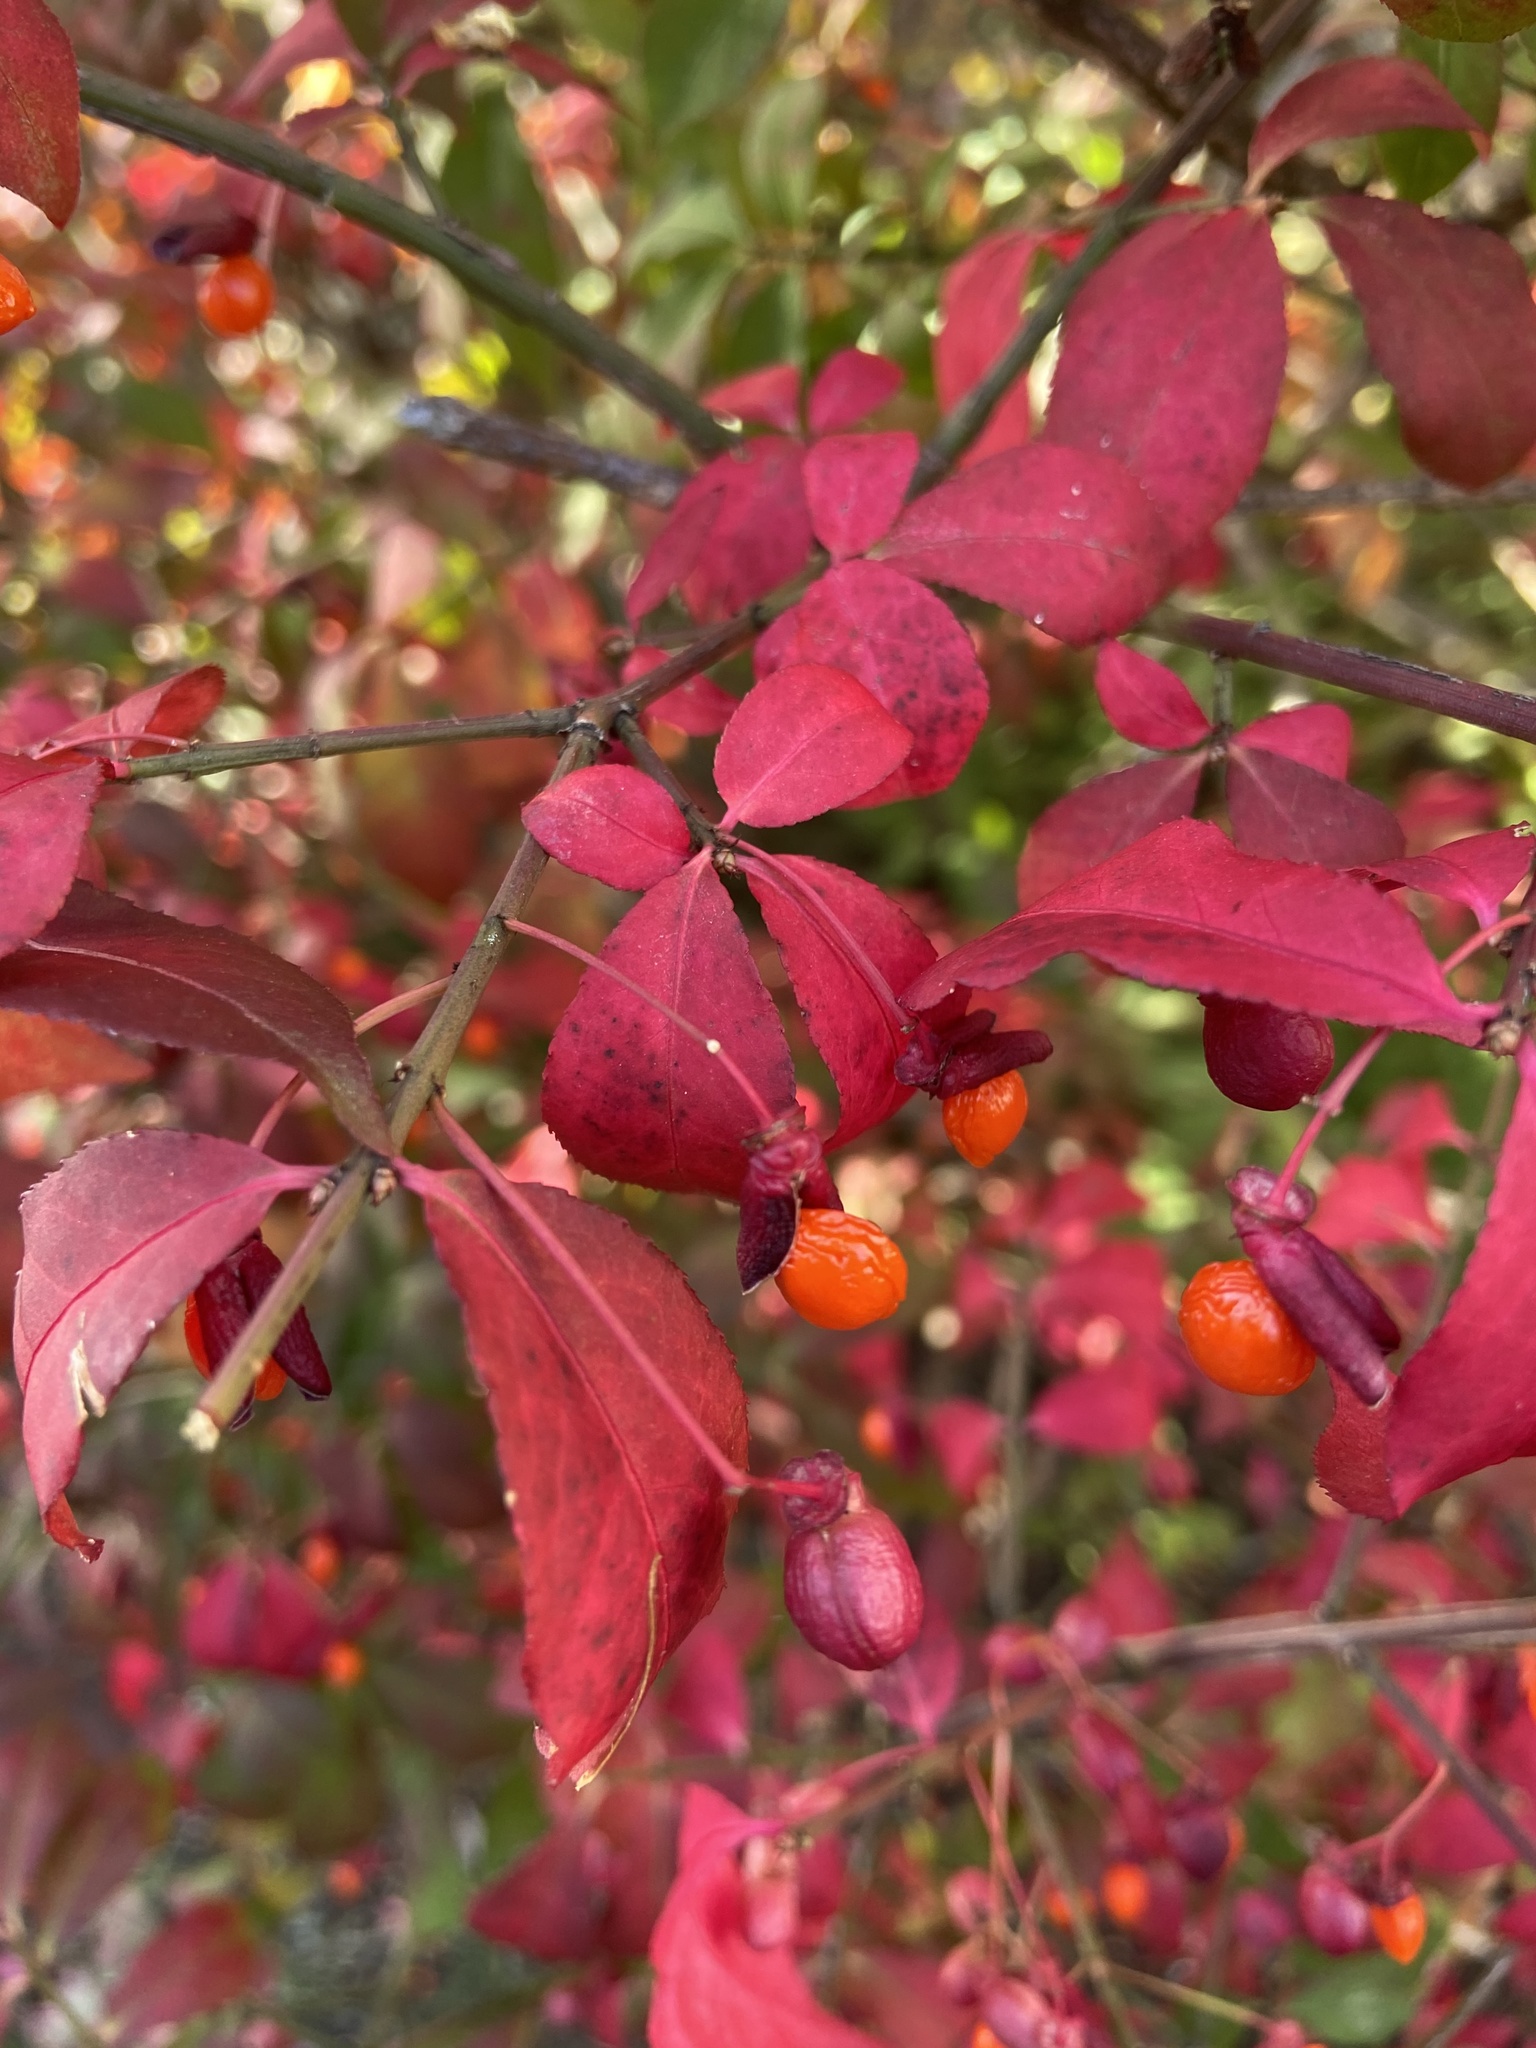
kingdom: Plantae
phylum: Tracheophyta
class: Magnoliopsida
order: Celastrales
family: Celastraceae
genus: Euonymus
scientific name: Euonymus alatus
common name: Winged euonymus
